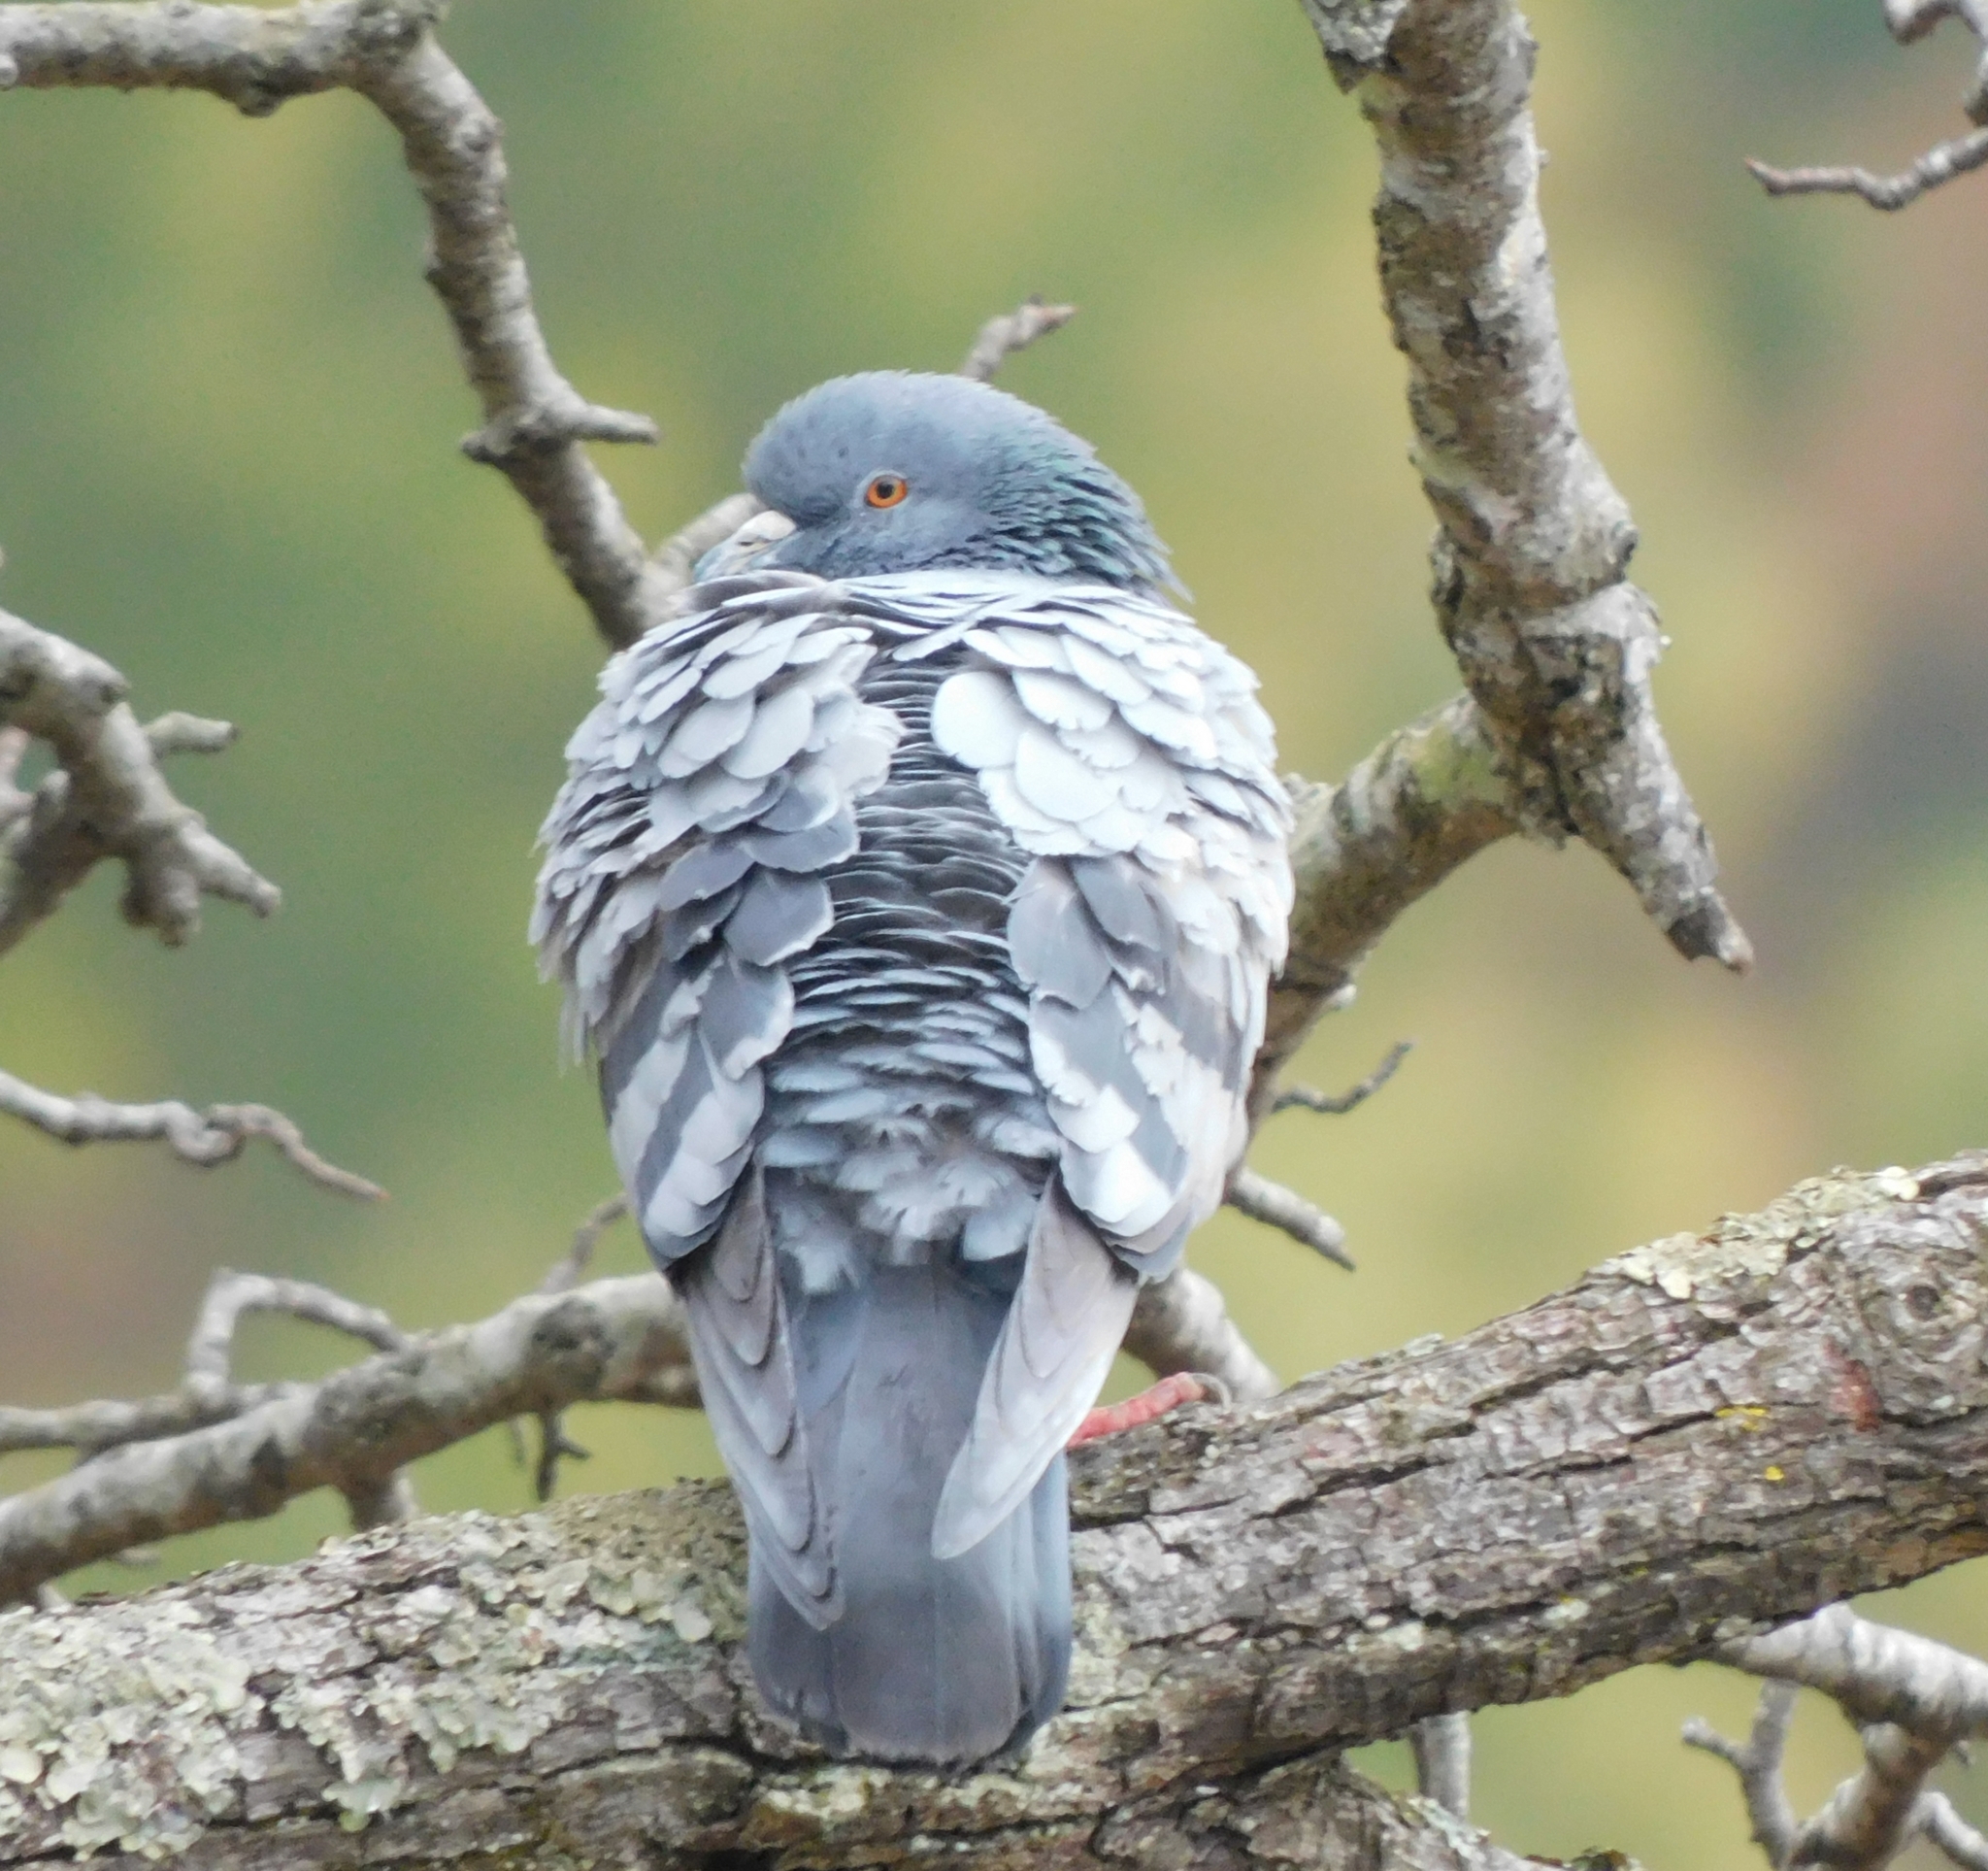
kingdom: Animalia
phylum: Chordata
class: Aves
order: Columbiformes
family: Columbidae
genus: Columba
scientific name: Columba livia
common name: Rock pigeon
